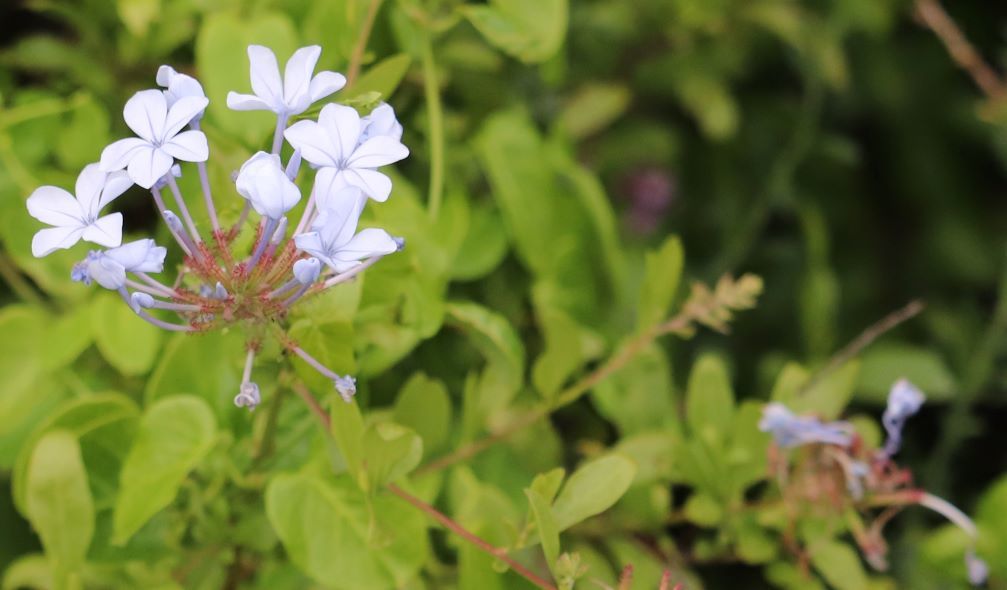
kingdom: Plantae
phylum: Tracheophyta
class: Magnoliopsida
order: Caryophyllales
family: Plumbaginaceae
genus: Plumbago
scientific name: Plumbago auriculata
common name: Cape leadwort
